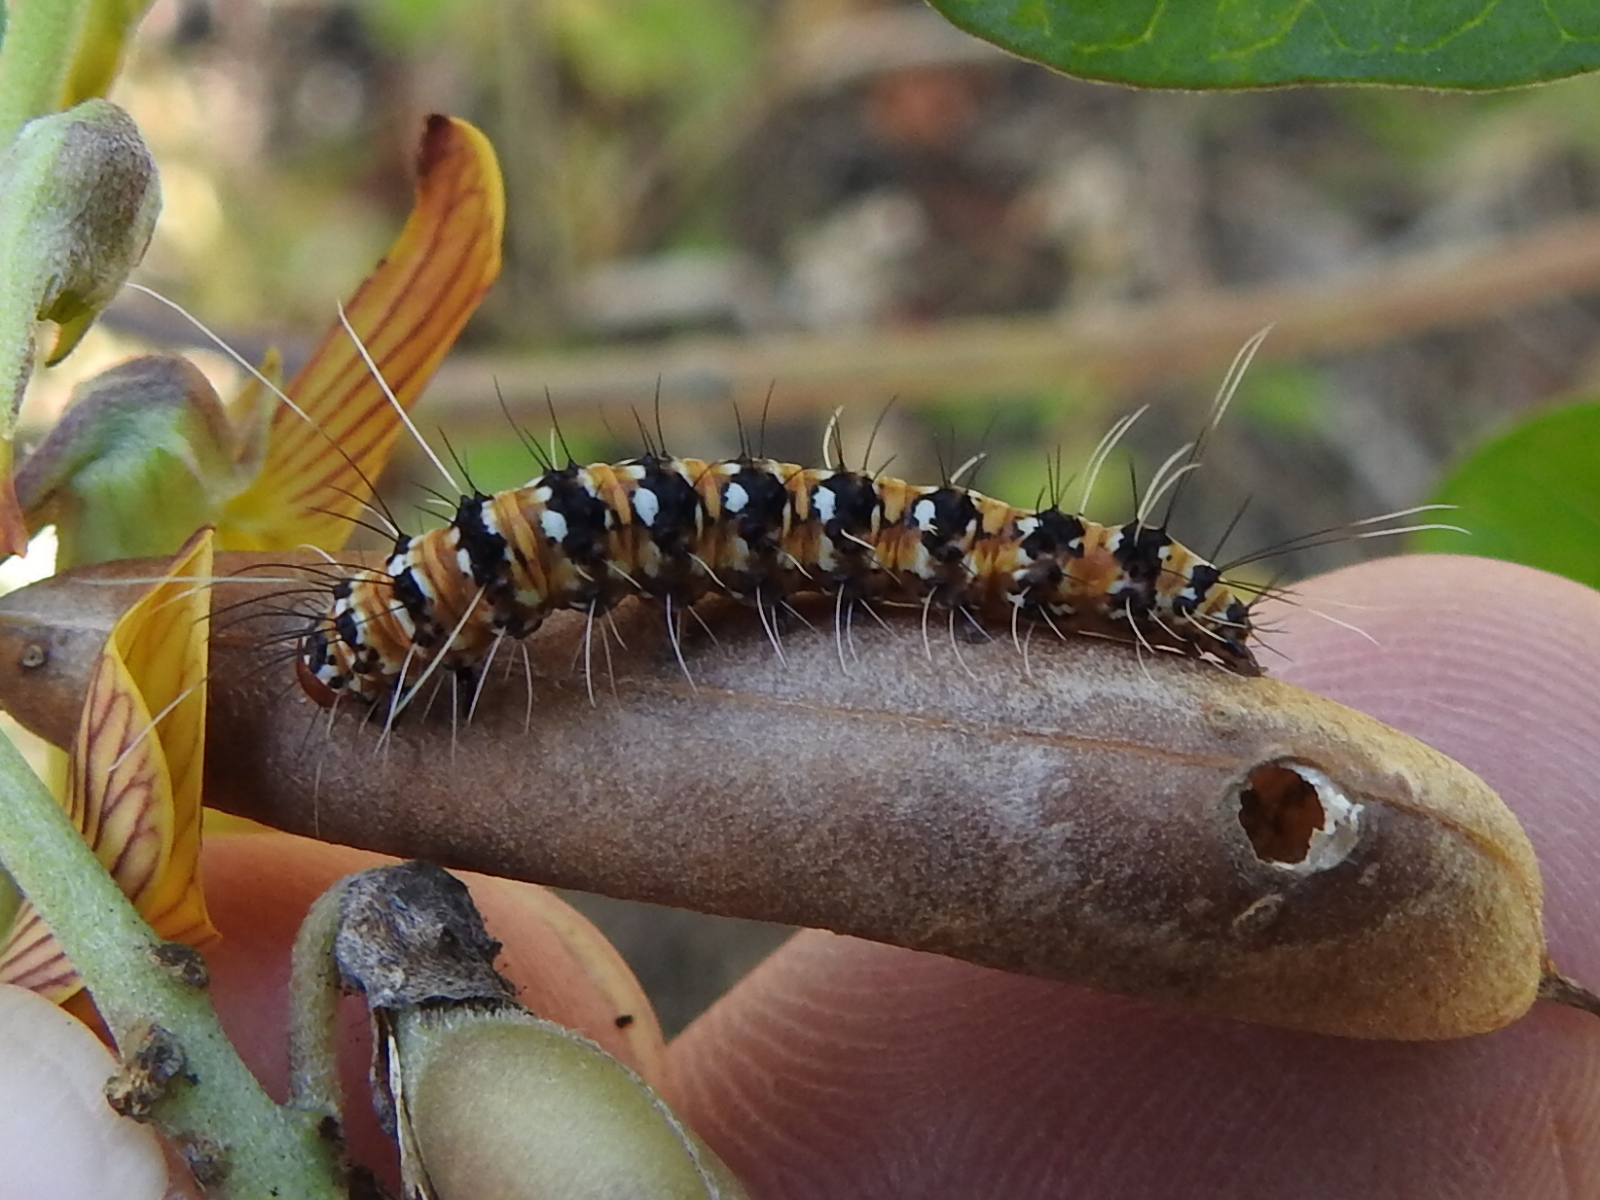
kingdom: Animalia
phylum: Arthropoda
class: Insecta
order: Lepidoptera
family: Erebidae
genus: Utetheisa
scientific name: Utetheisa ornatrix
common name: Beautiful utetheisa
